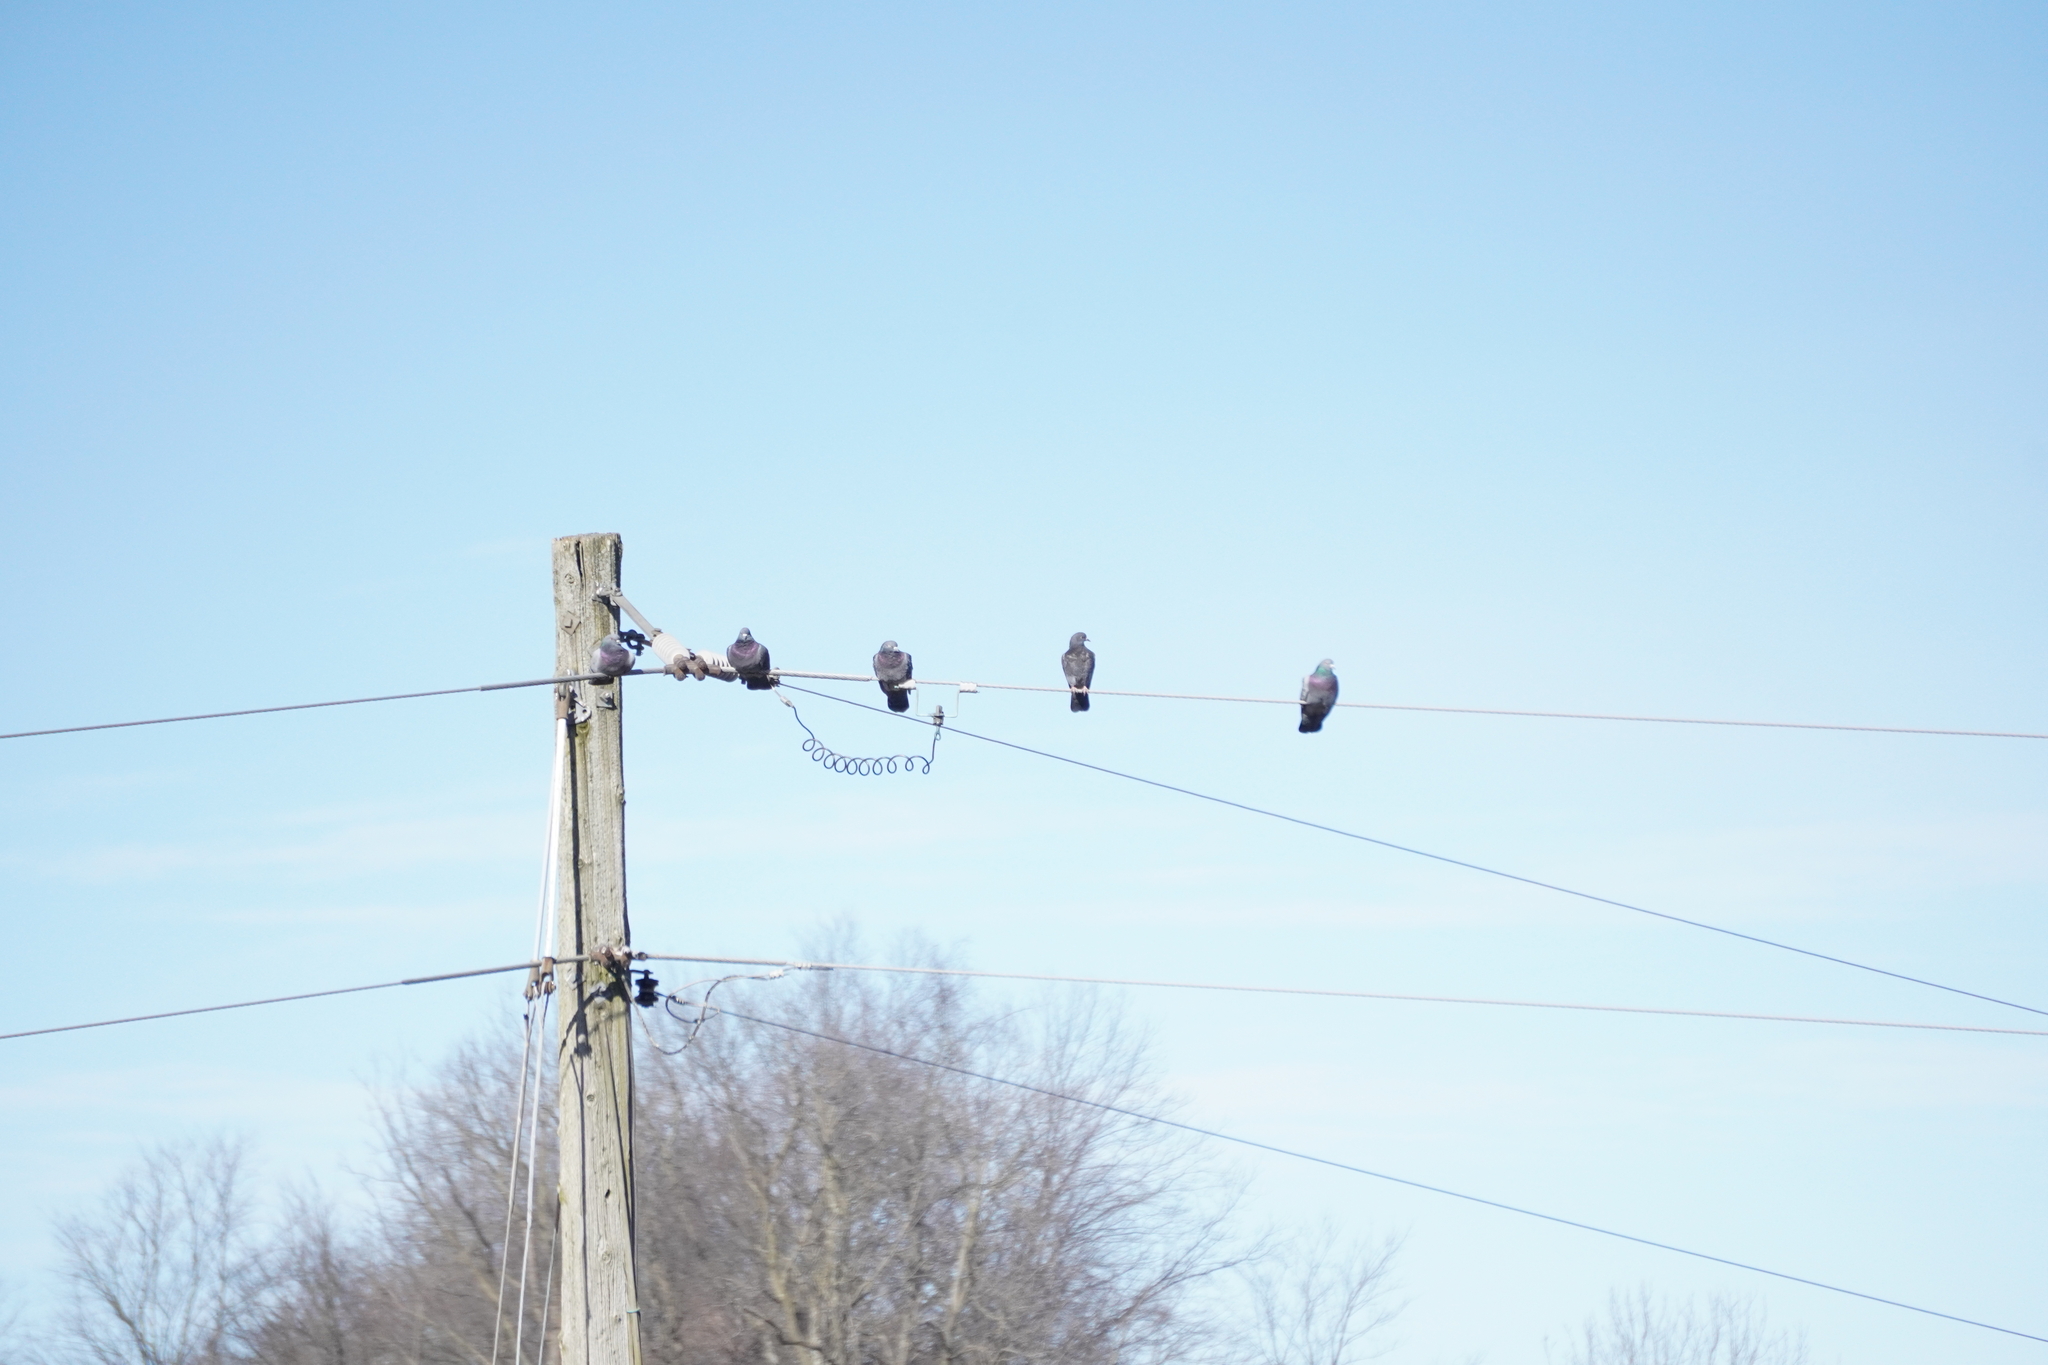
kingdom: Animalia
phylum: Chordata
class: Aves
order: Columbiformes
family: Columbidae
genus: Columba
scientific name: Columba livia
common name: Rock pigeon
